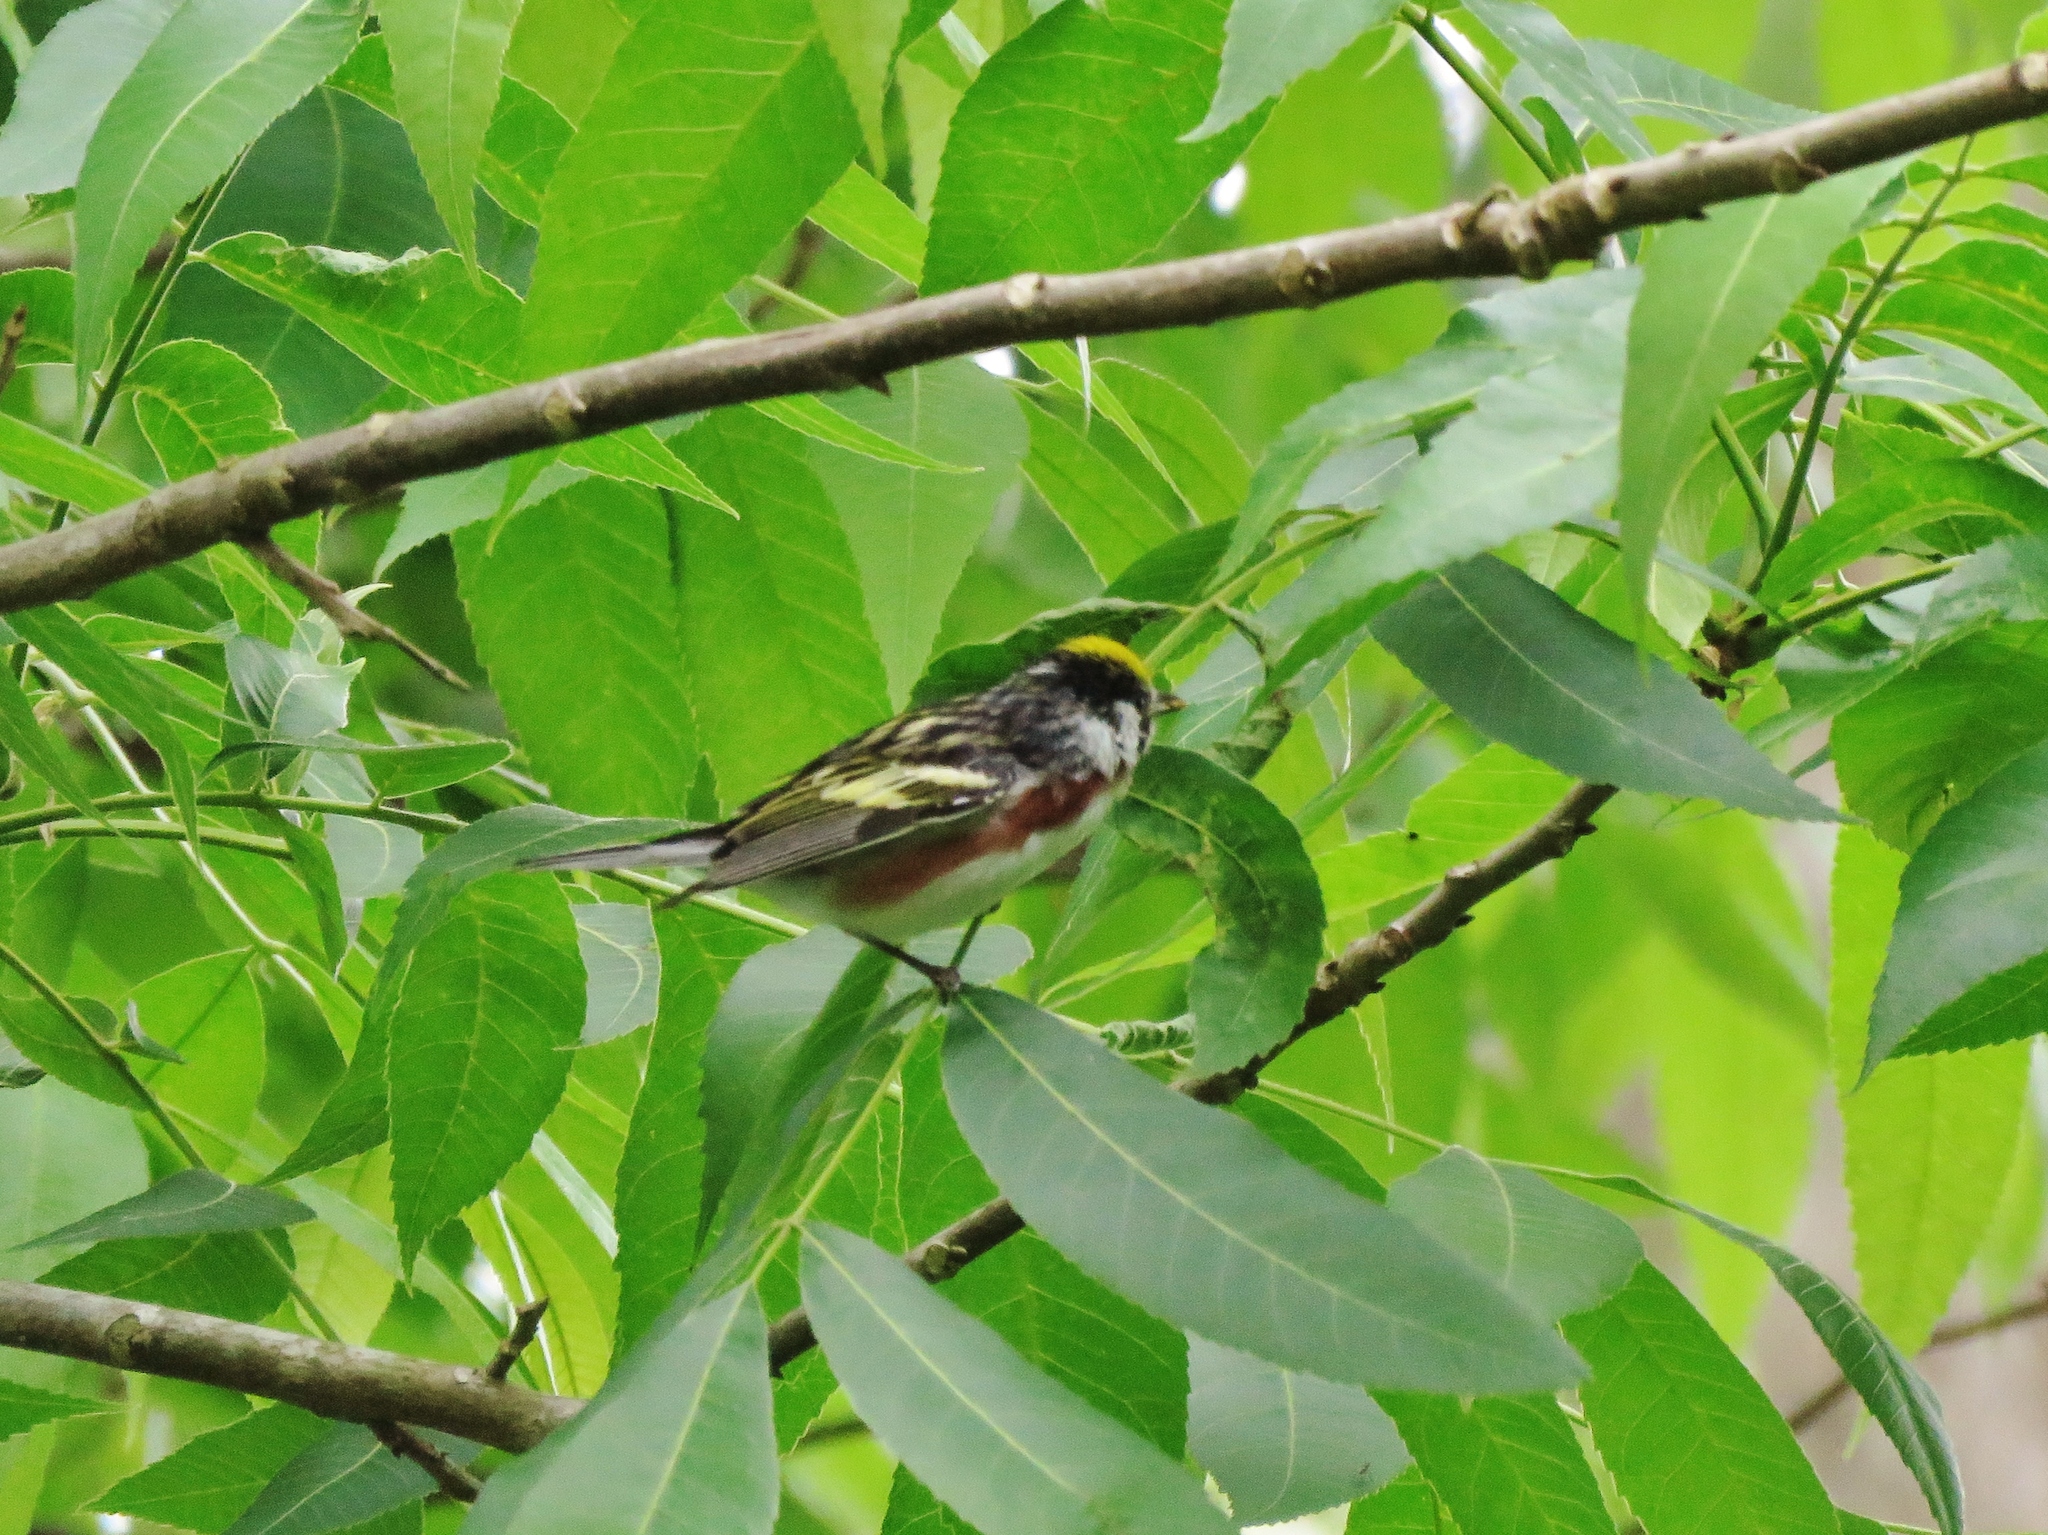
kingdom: Animalia
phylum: Chordata
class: Aves
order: Passeriformes
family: Parulidae
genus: Setophaga
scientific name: Setophaga pensylvanica
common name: Chestnut-sided warbler
